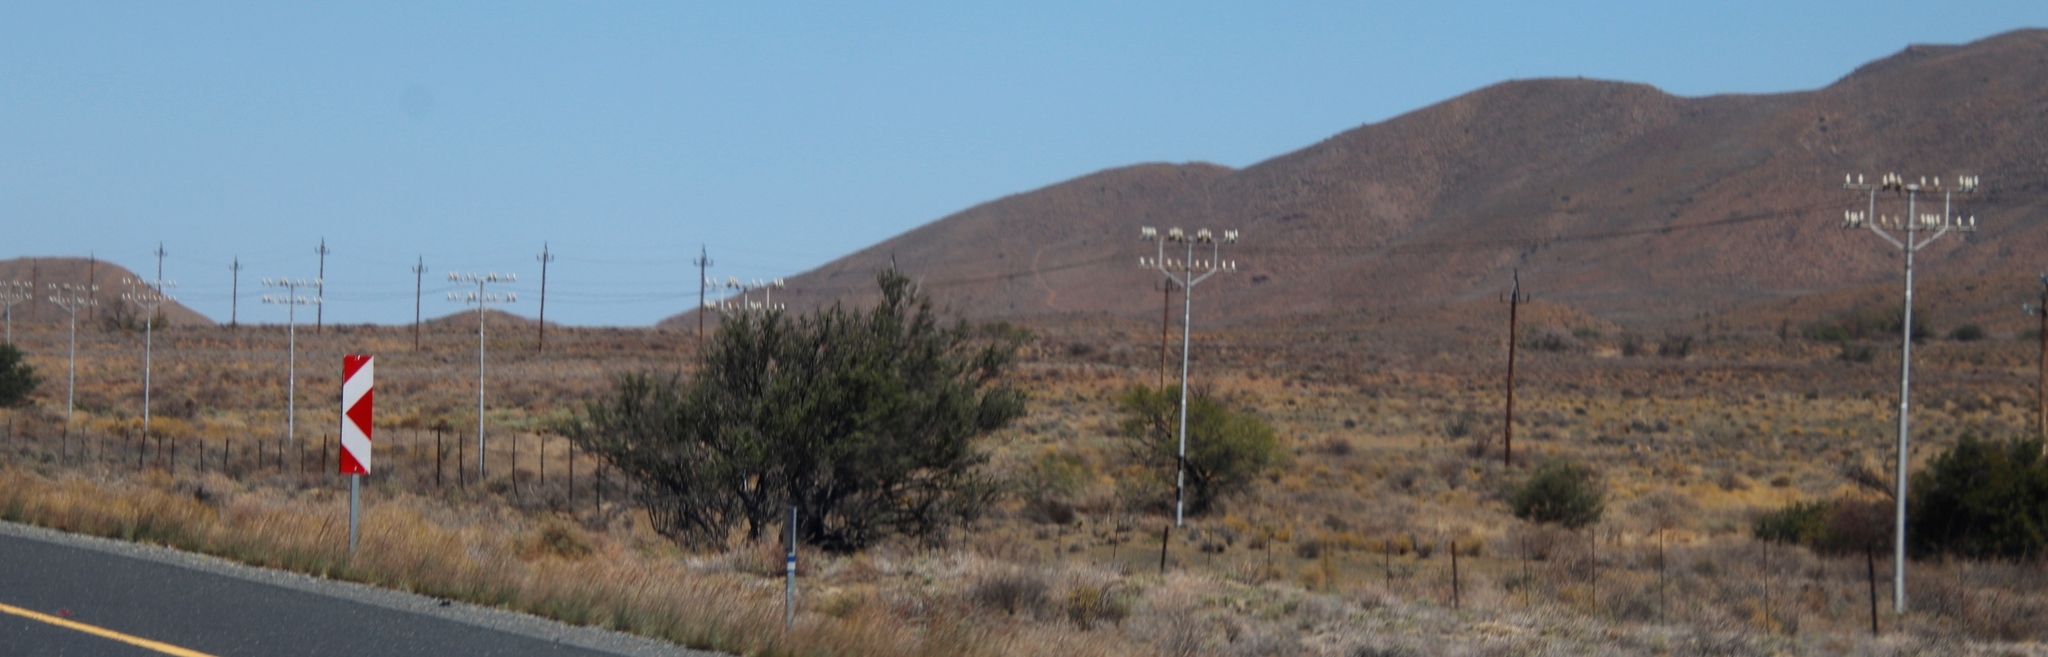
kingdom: Plantae
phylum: Tracheophyta
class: Magnoliopsida
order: Fabales
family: Fabaceae
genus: Vachellia
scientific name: Vachellia karroo
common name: Sweet thorn
